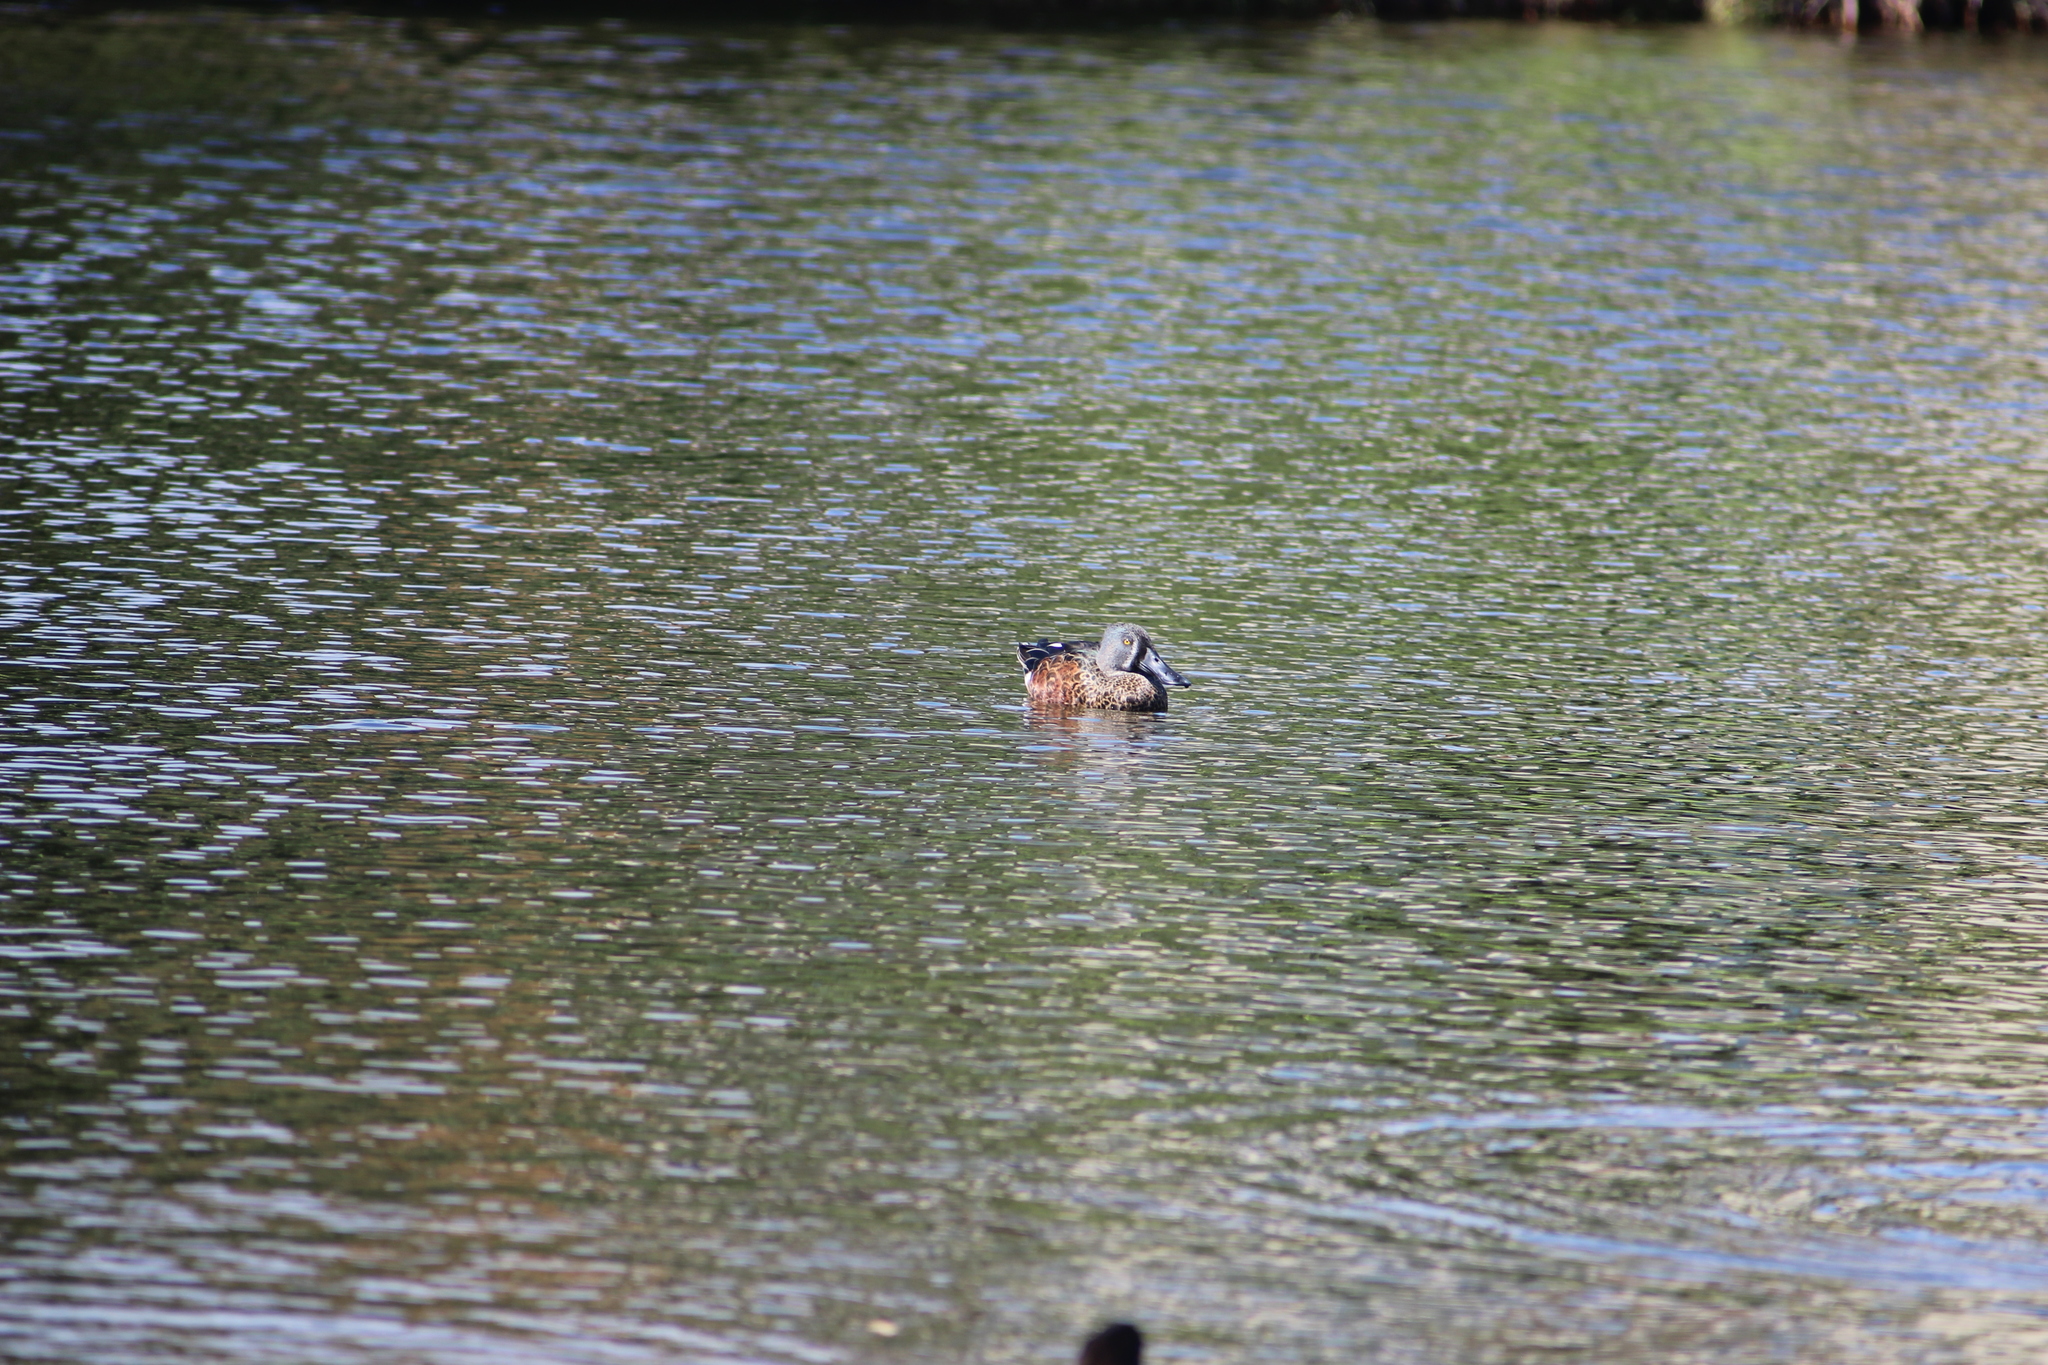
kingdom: Animalia
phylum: Chordata
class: Aves
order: Anseriformes
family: Anatidae
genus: Spatula
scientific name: Spatula rhynchotis
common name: Australian shoveler
